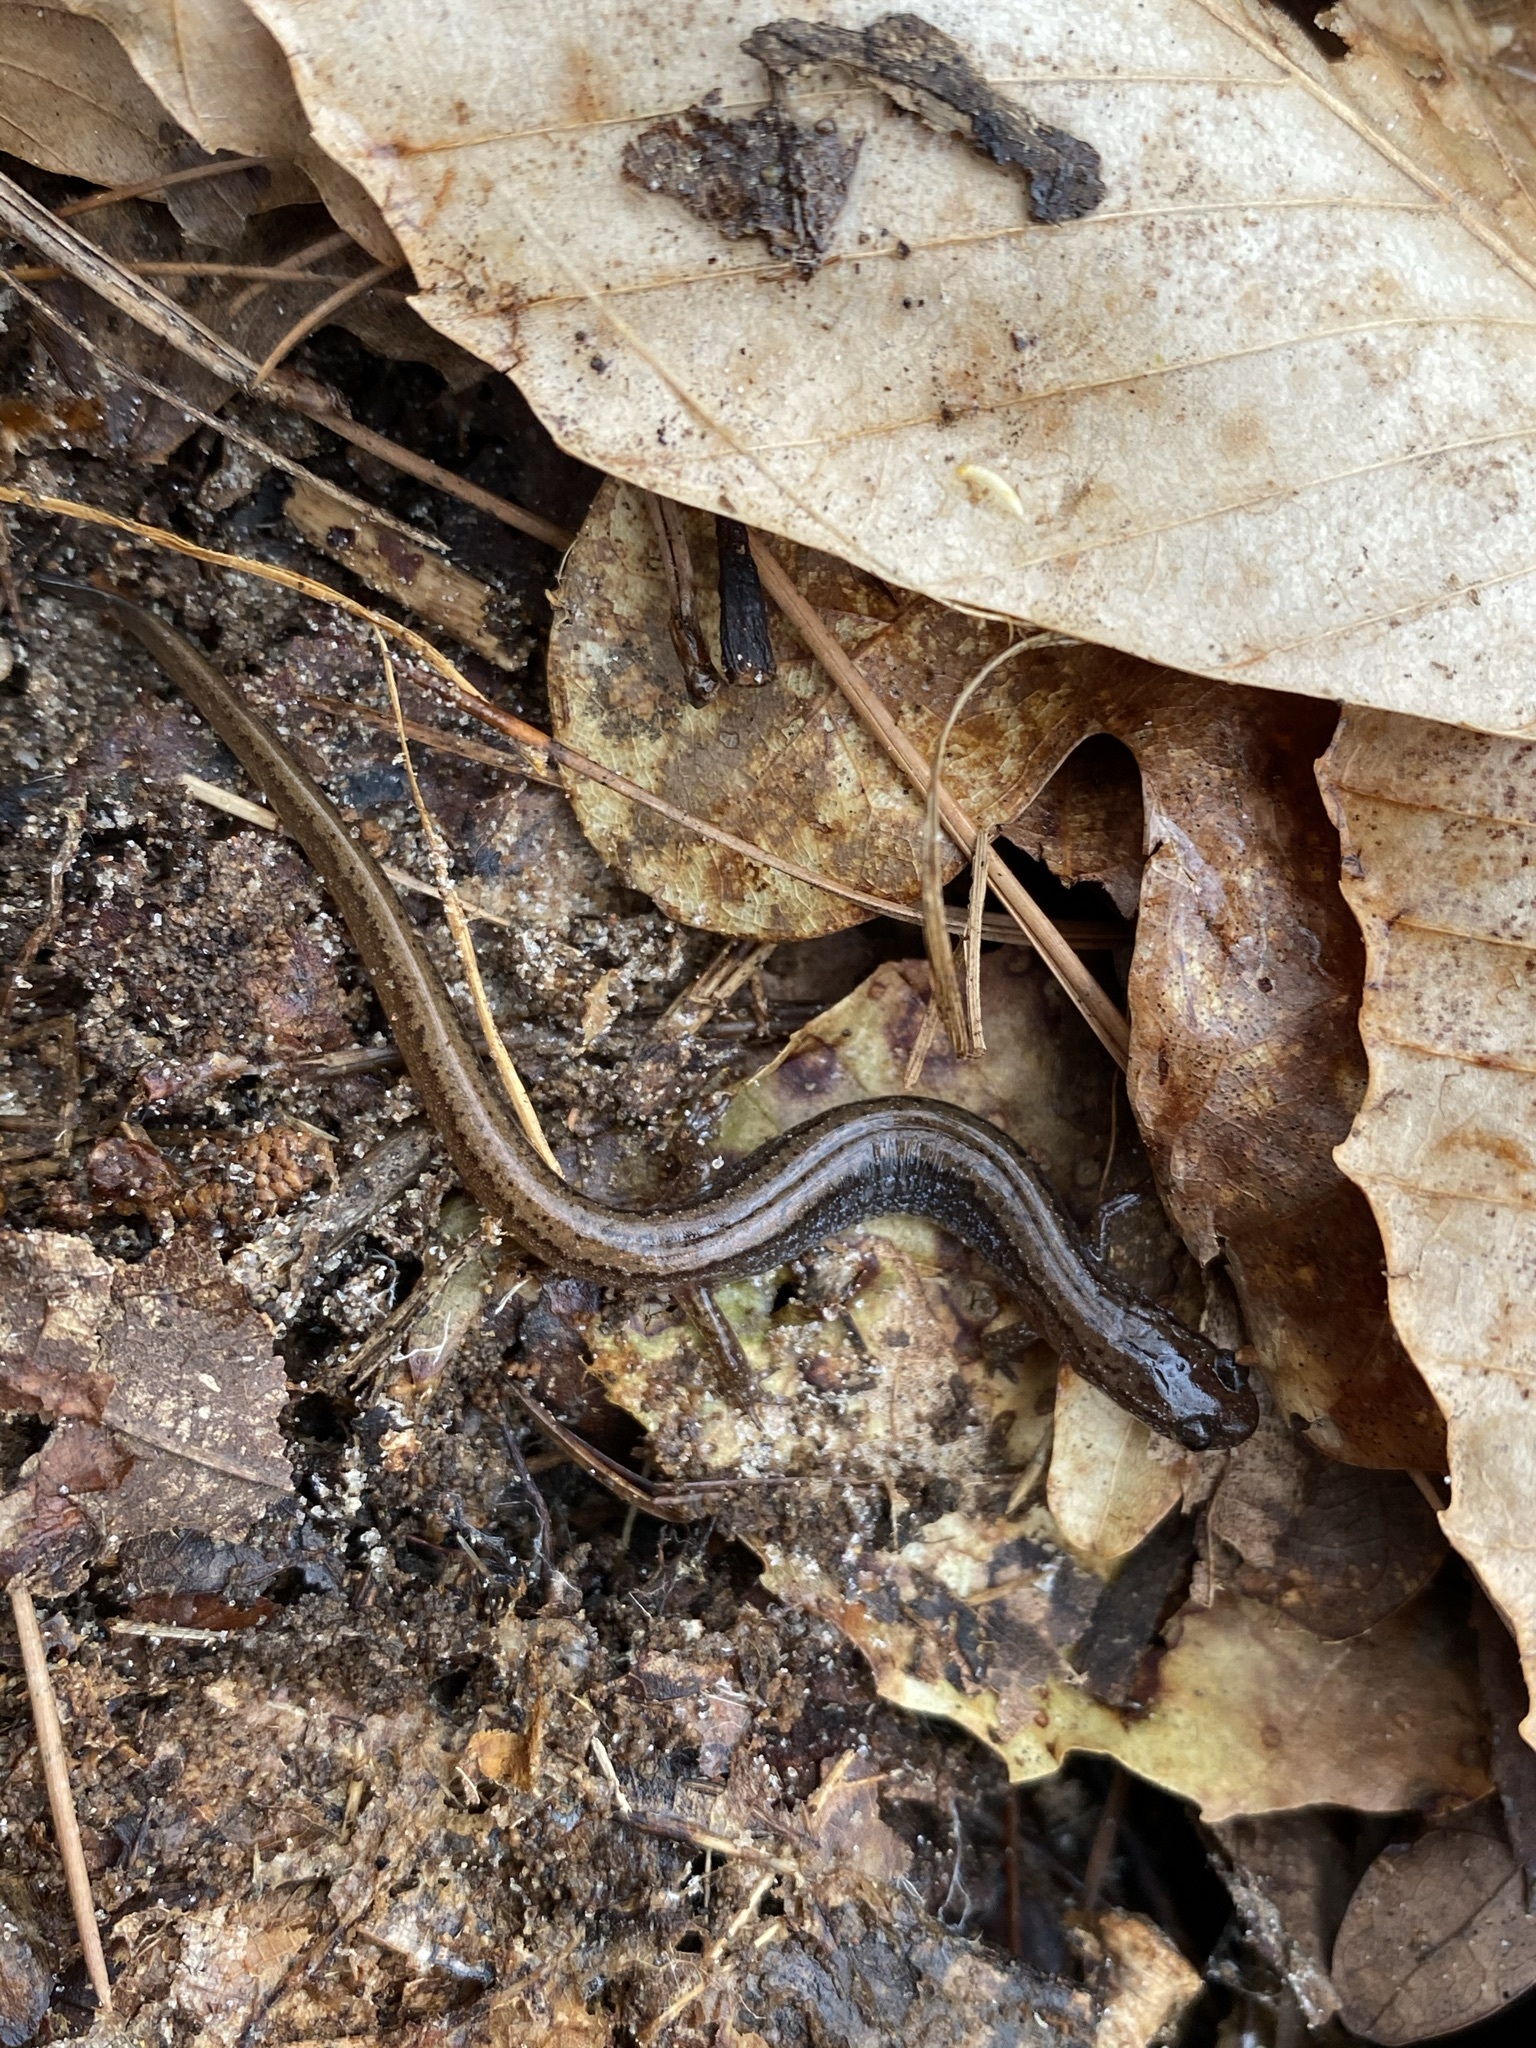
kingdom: Animalia
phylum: Chordata
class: Amphibia
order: Caudata
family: Plethodontidae
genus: Eurycea
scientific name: Eurycea paludicola
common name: Western dwarf salamander
